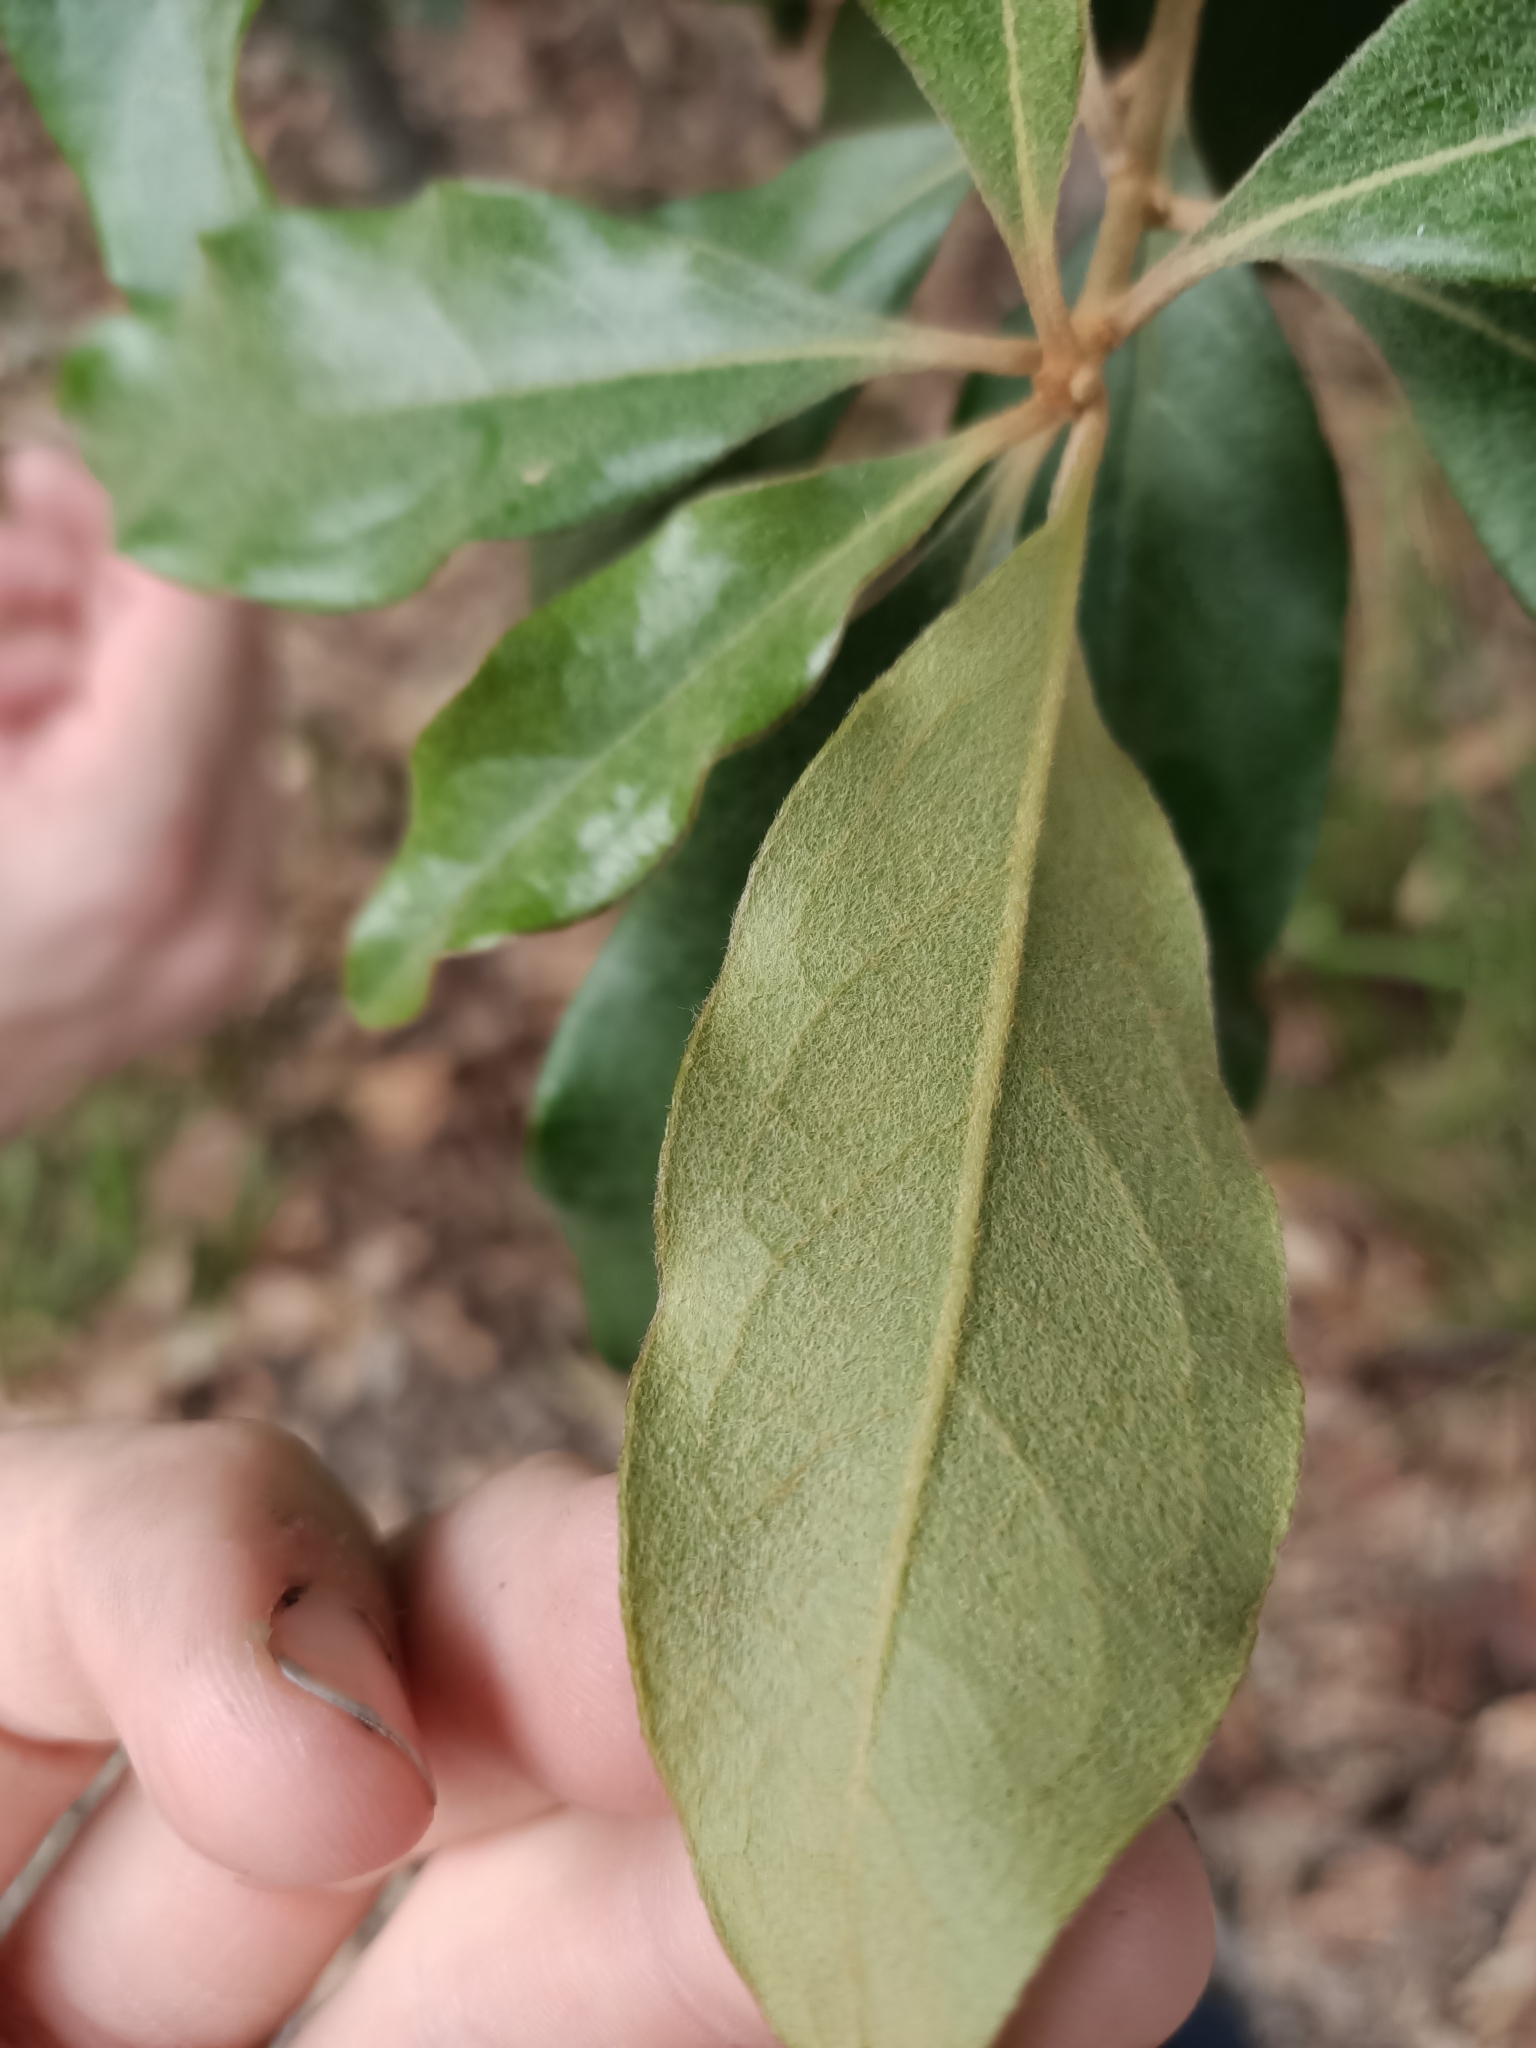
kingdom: Plantae
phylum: Tracheophyta
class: Magnoliopsida
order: Apiales
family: Pittosporaceae
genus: Pittosporum
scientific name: Pittosporum revolutum
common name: Brisbane-laurel
